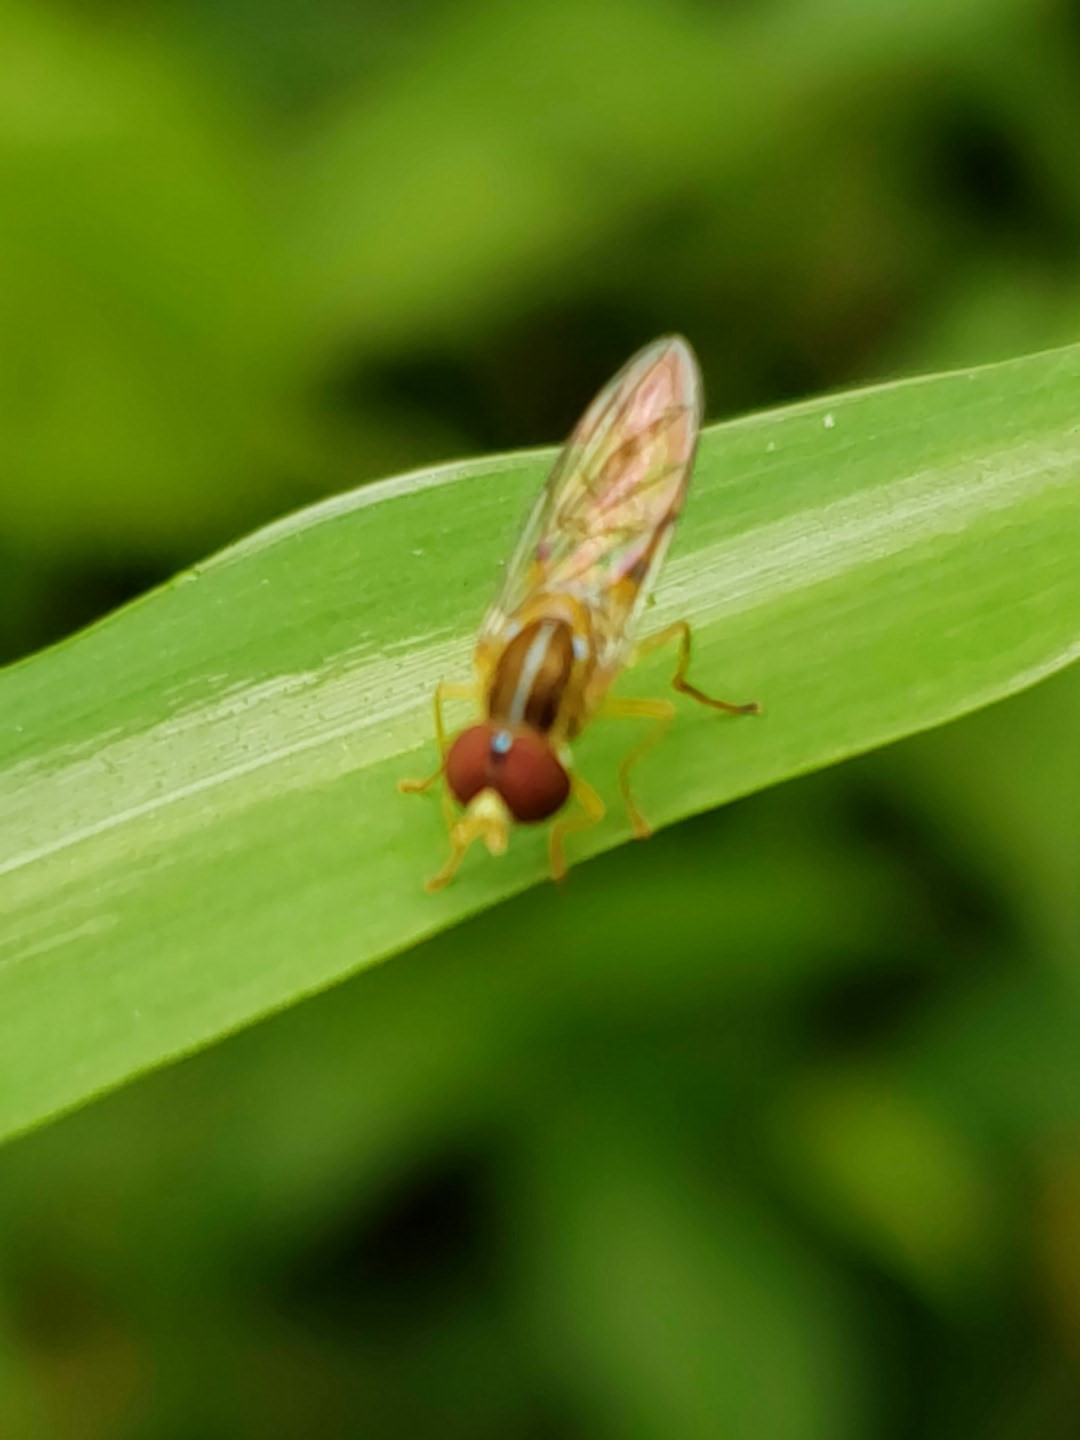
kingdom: Animalia
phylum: Arthropoda
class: Insecta
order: Diptera
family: Syrphidae
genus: Toxomerus
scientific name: Toxomerus politus
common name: Maize calligrapher
